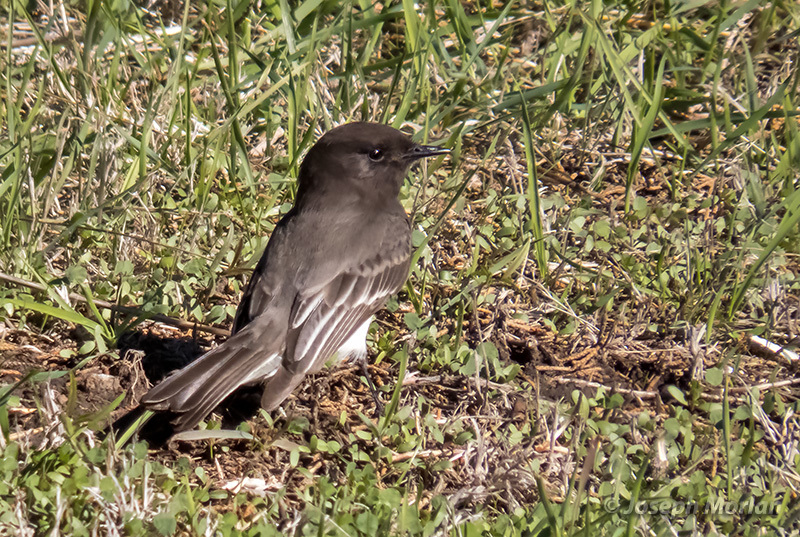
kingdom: Animalia
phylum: Chordata
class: Aves
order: Passeriformes
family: Tyrannidae
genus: Sayornis
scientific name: Sayornis nigricans
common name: Black phoebe
